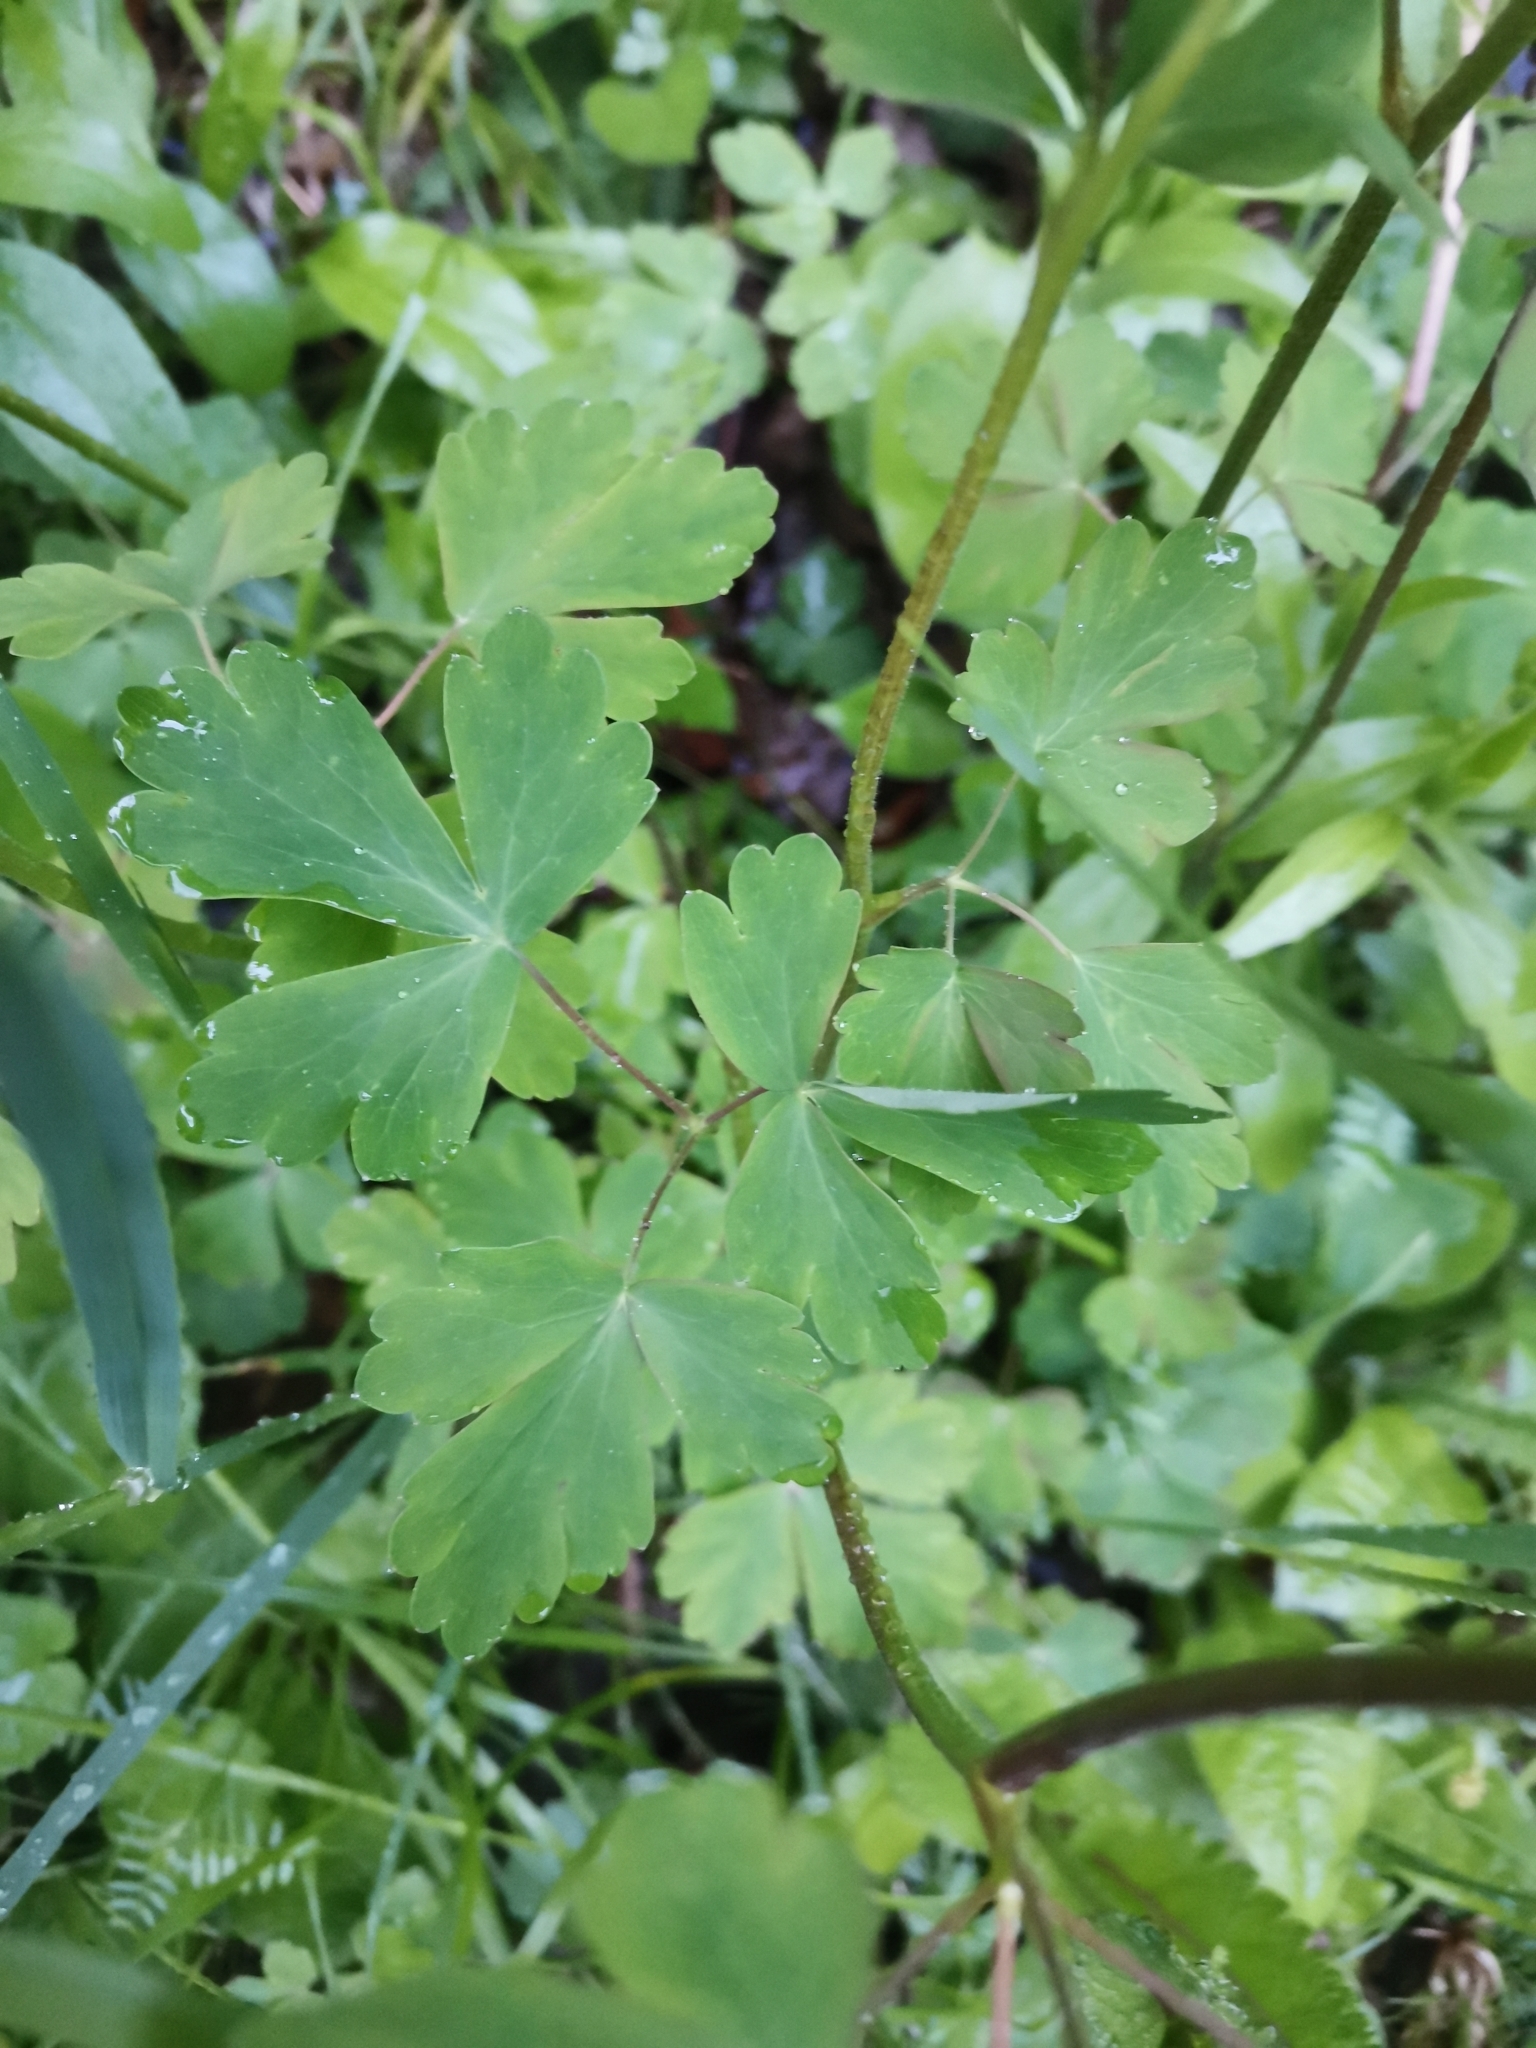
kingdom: Plantae
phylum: Tracheophyta
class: Magnoliopsida
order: Ranunculales
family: Ranunculaceae
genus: Aquilegia
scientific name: Aquilegia atrata
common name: Dark columbine
